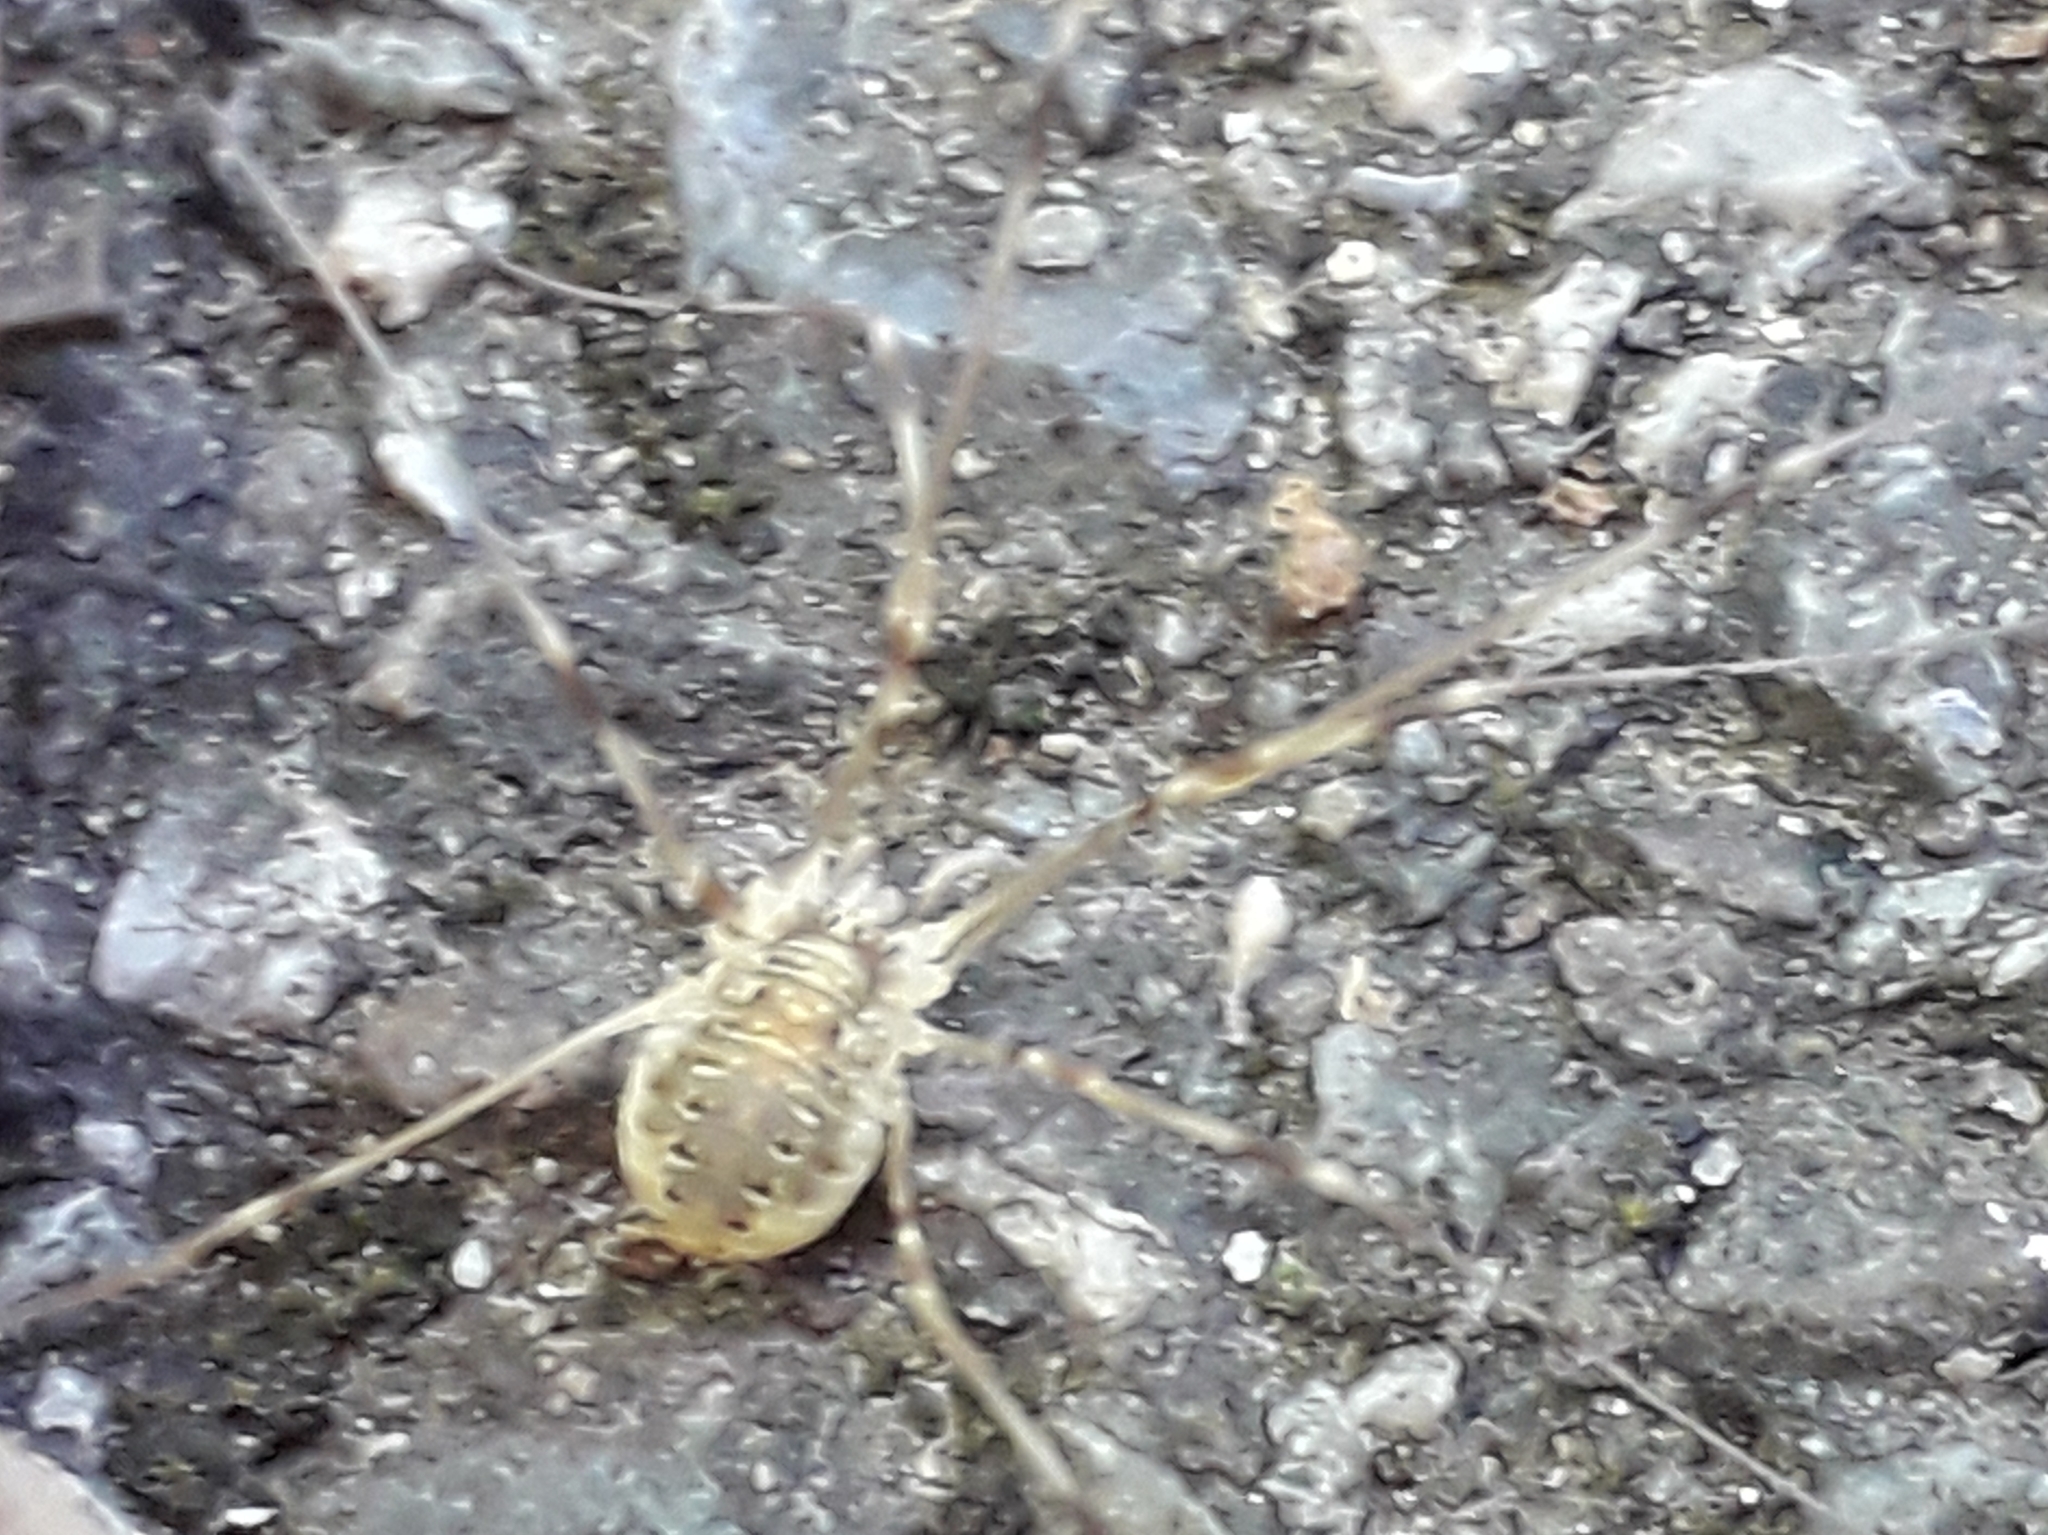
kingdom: Animalia
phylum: Arthropoda
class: Arachnida
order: Opiliones
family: Phalangiidae
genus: Opilio
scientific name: Opilio canestrinii
